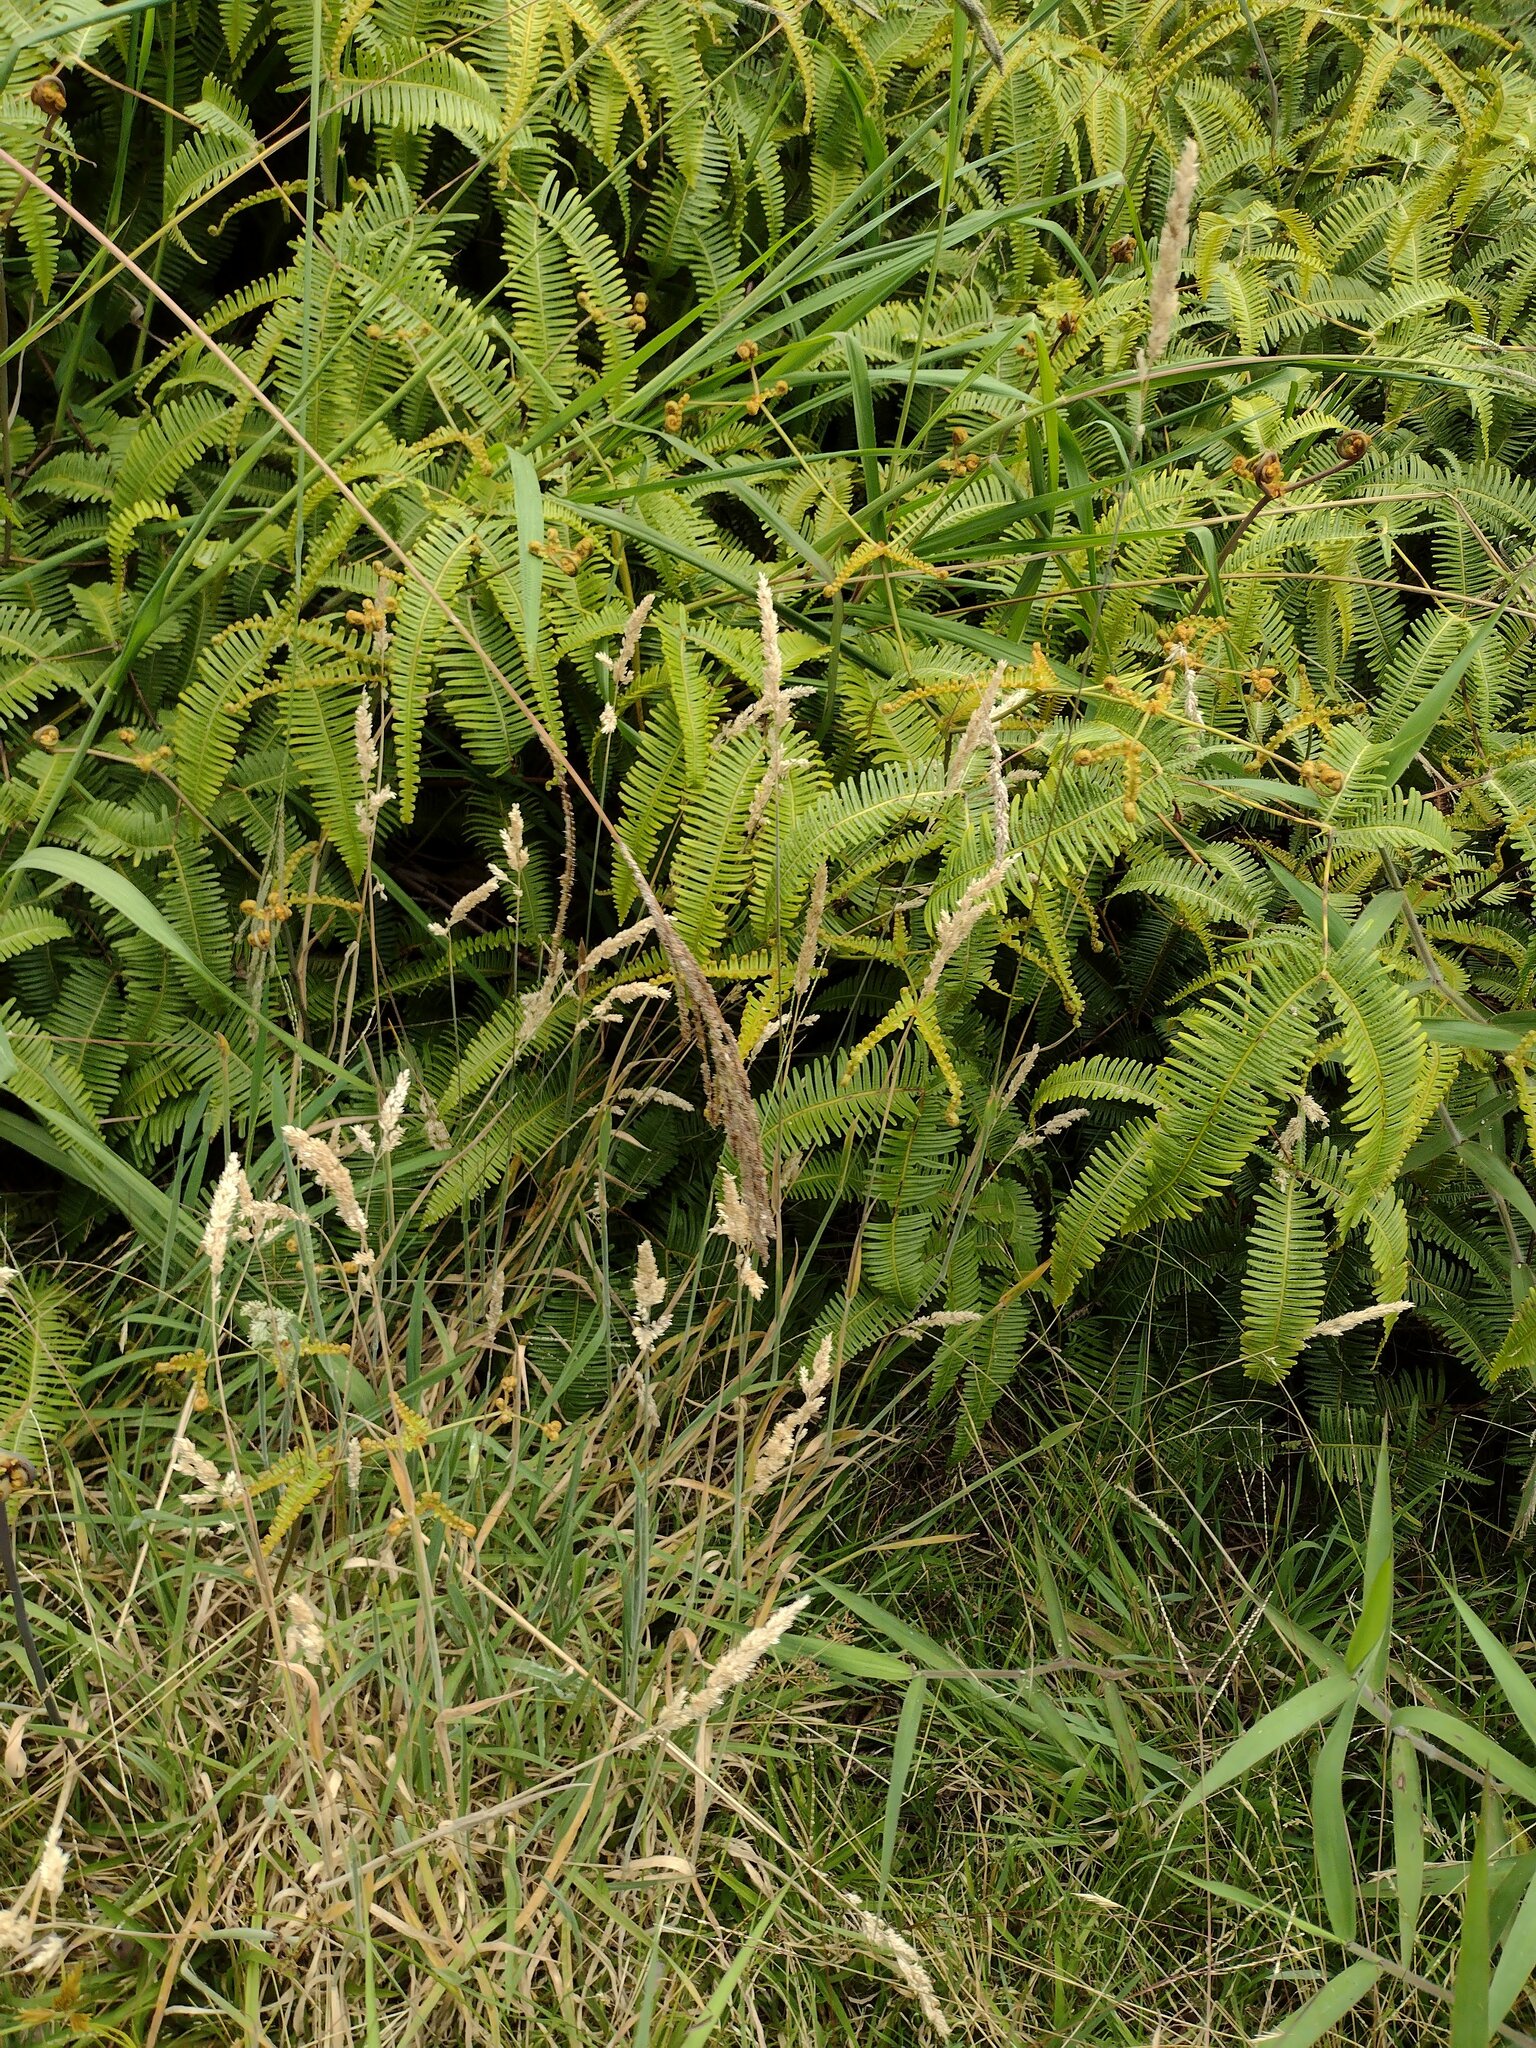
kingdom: Plantae
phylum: Tracheophyta
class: Liliopsida
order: Poales
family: Poaceae
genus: Holcus
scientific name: Holcus lanatus
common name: Yorkshire-fog
